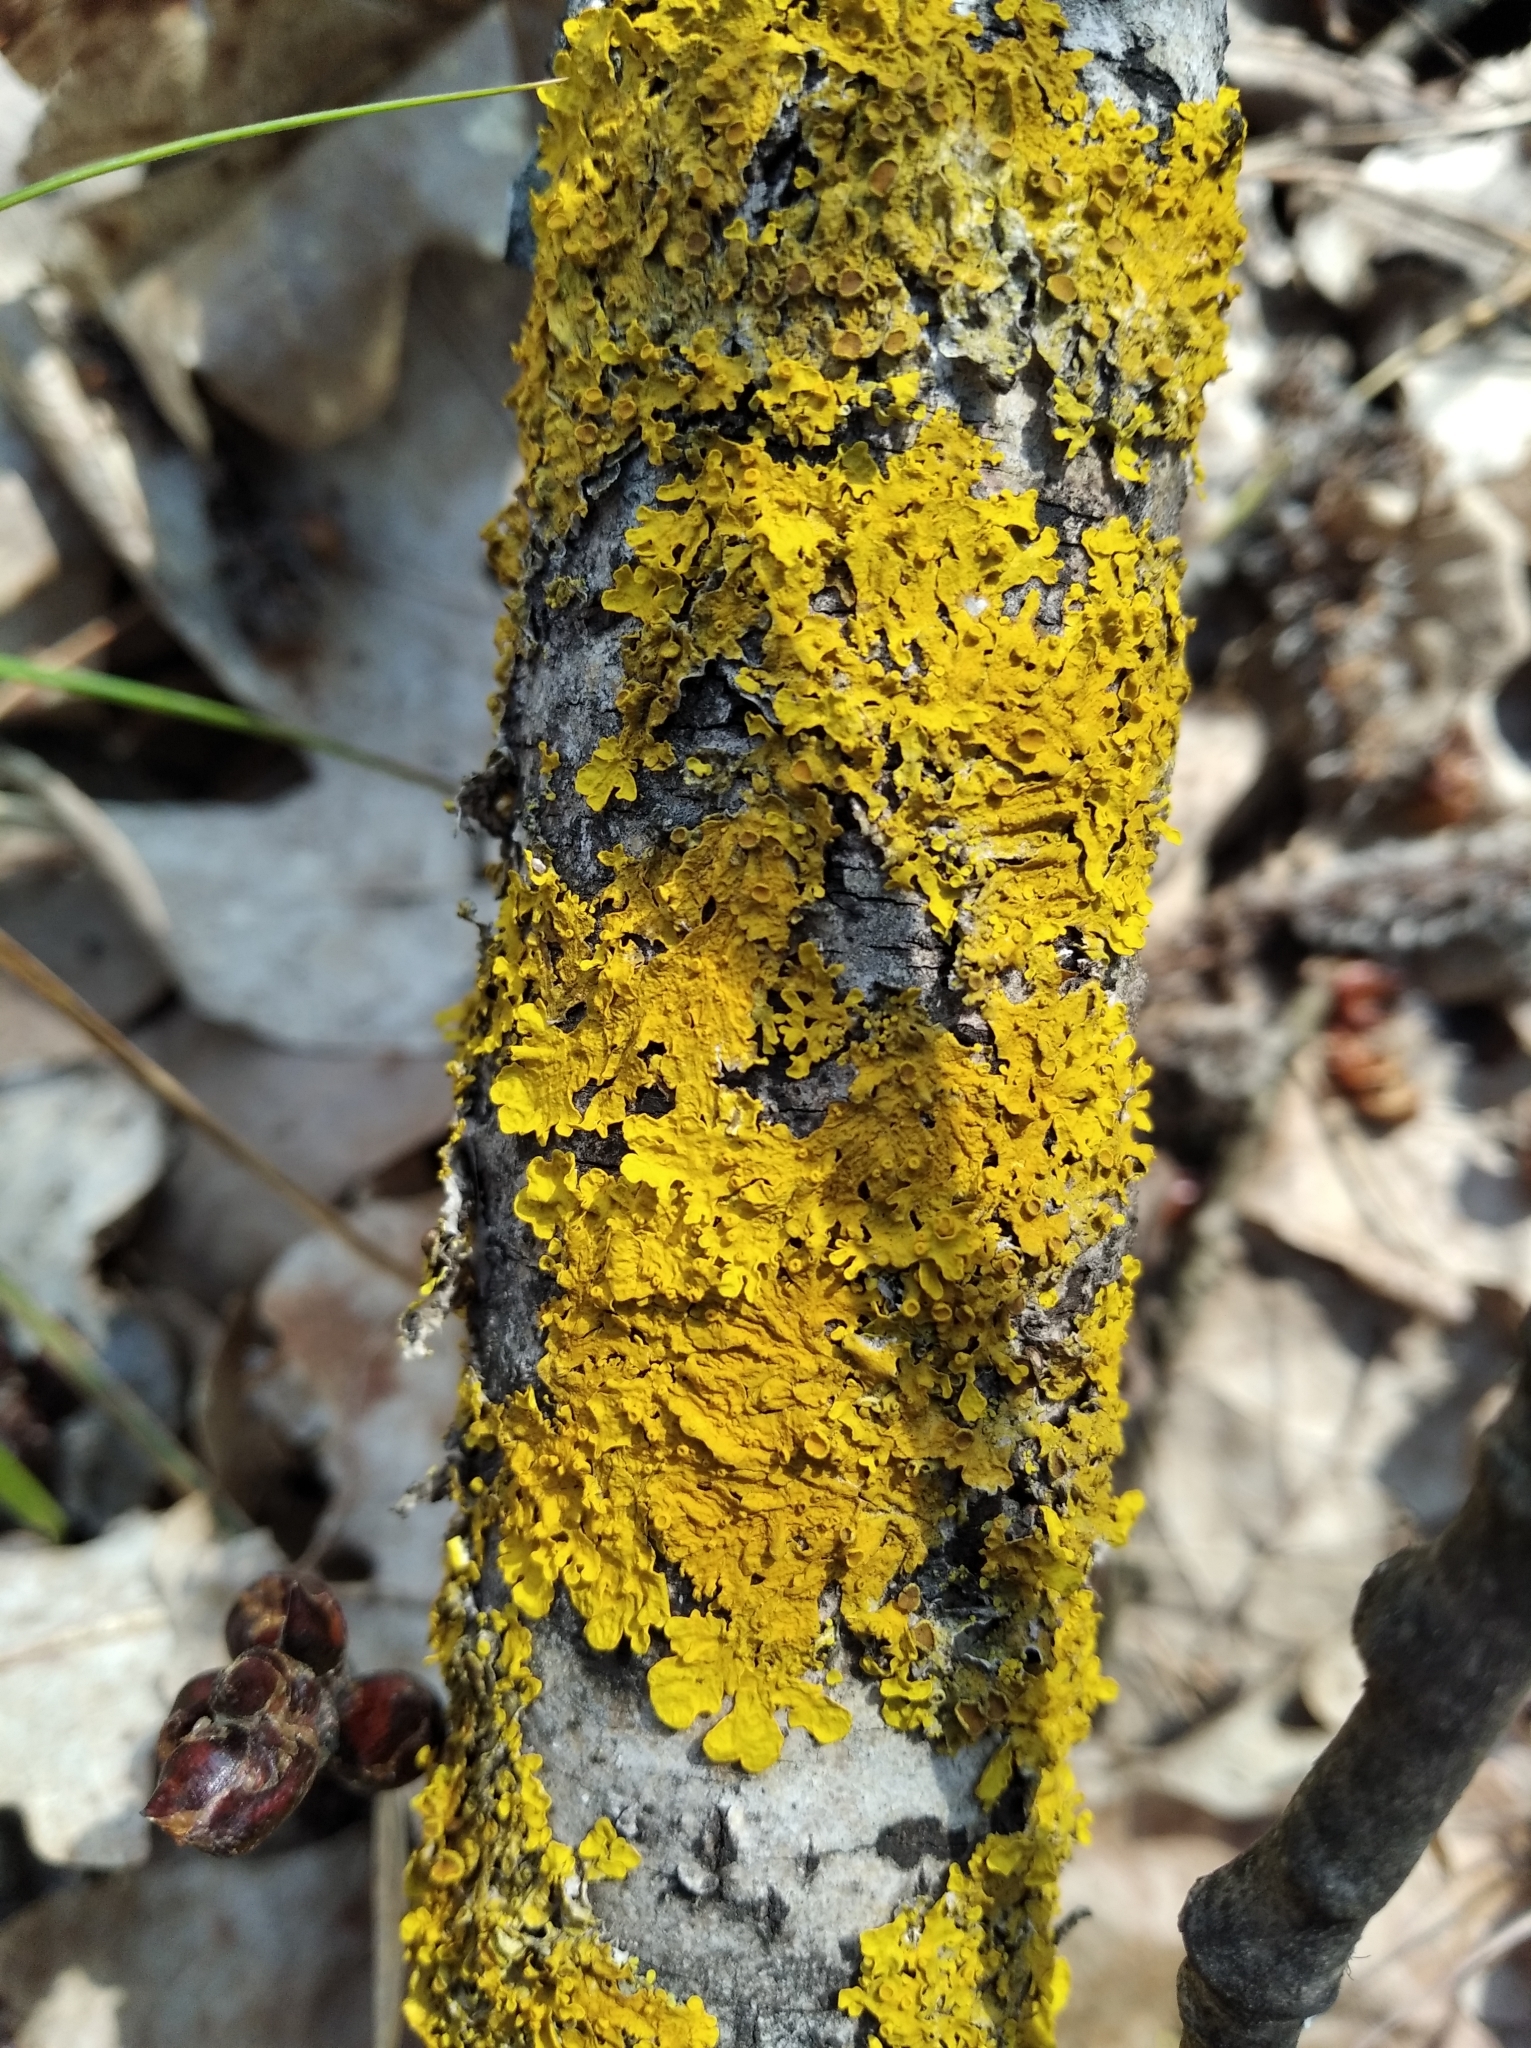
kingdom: Fungi
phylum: Ascomycota
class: Lecanoromycetes
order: Teloschistales
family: Teloschistaceae
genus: Xanthoria
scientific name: Xanthoria parietina
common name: Common orange lichen
